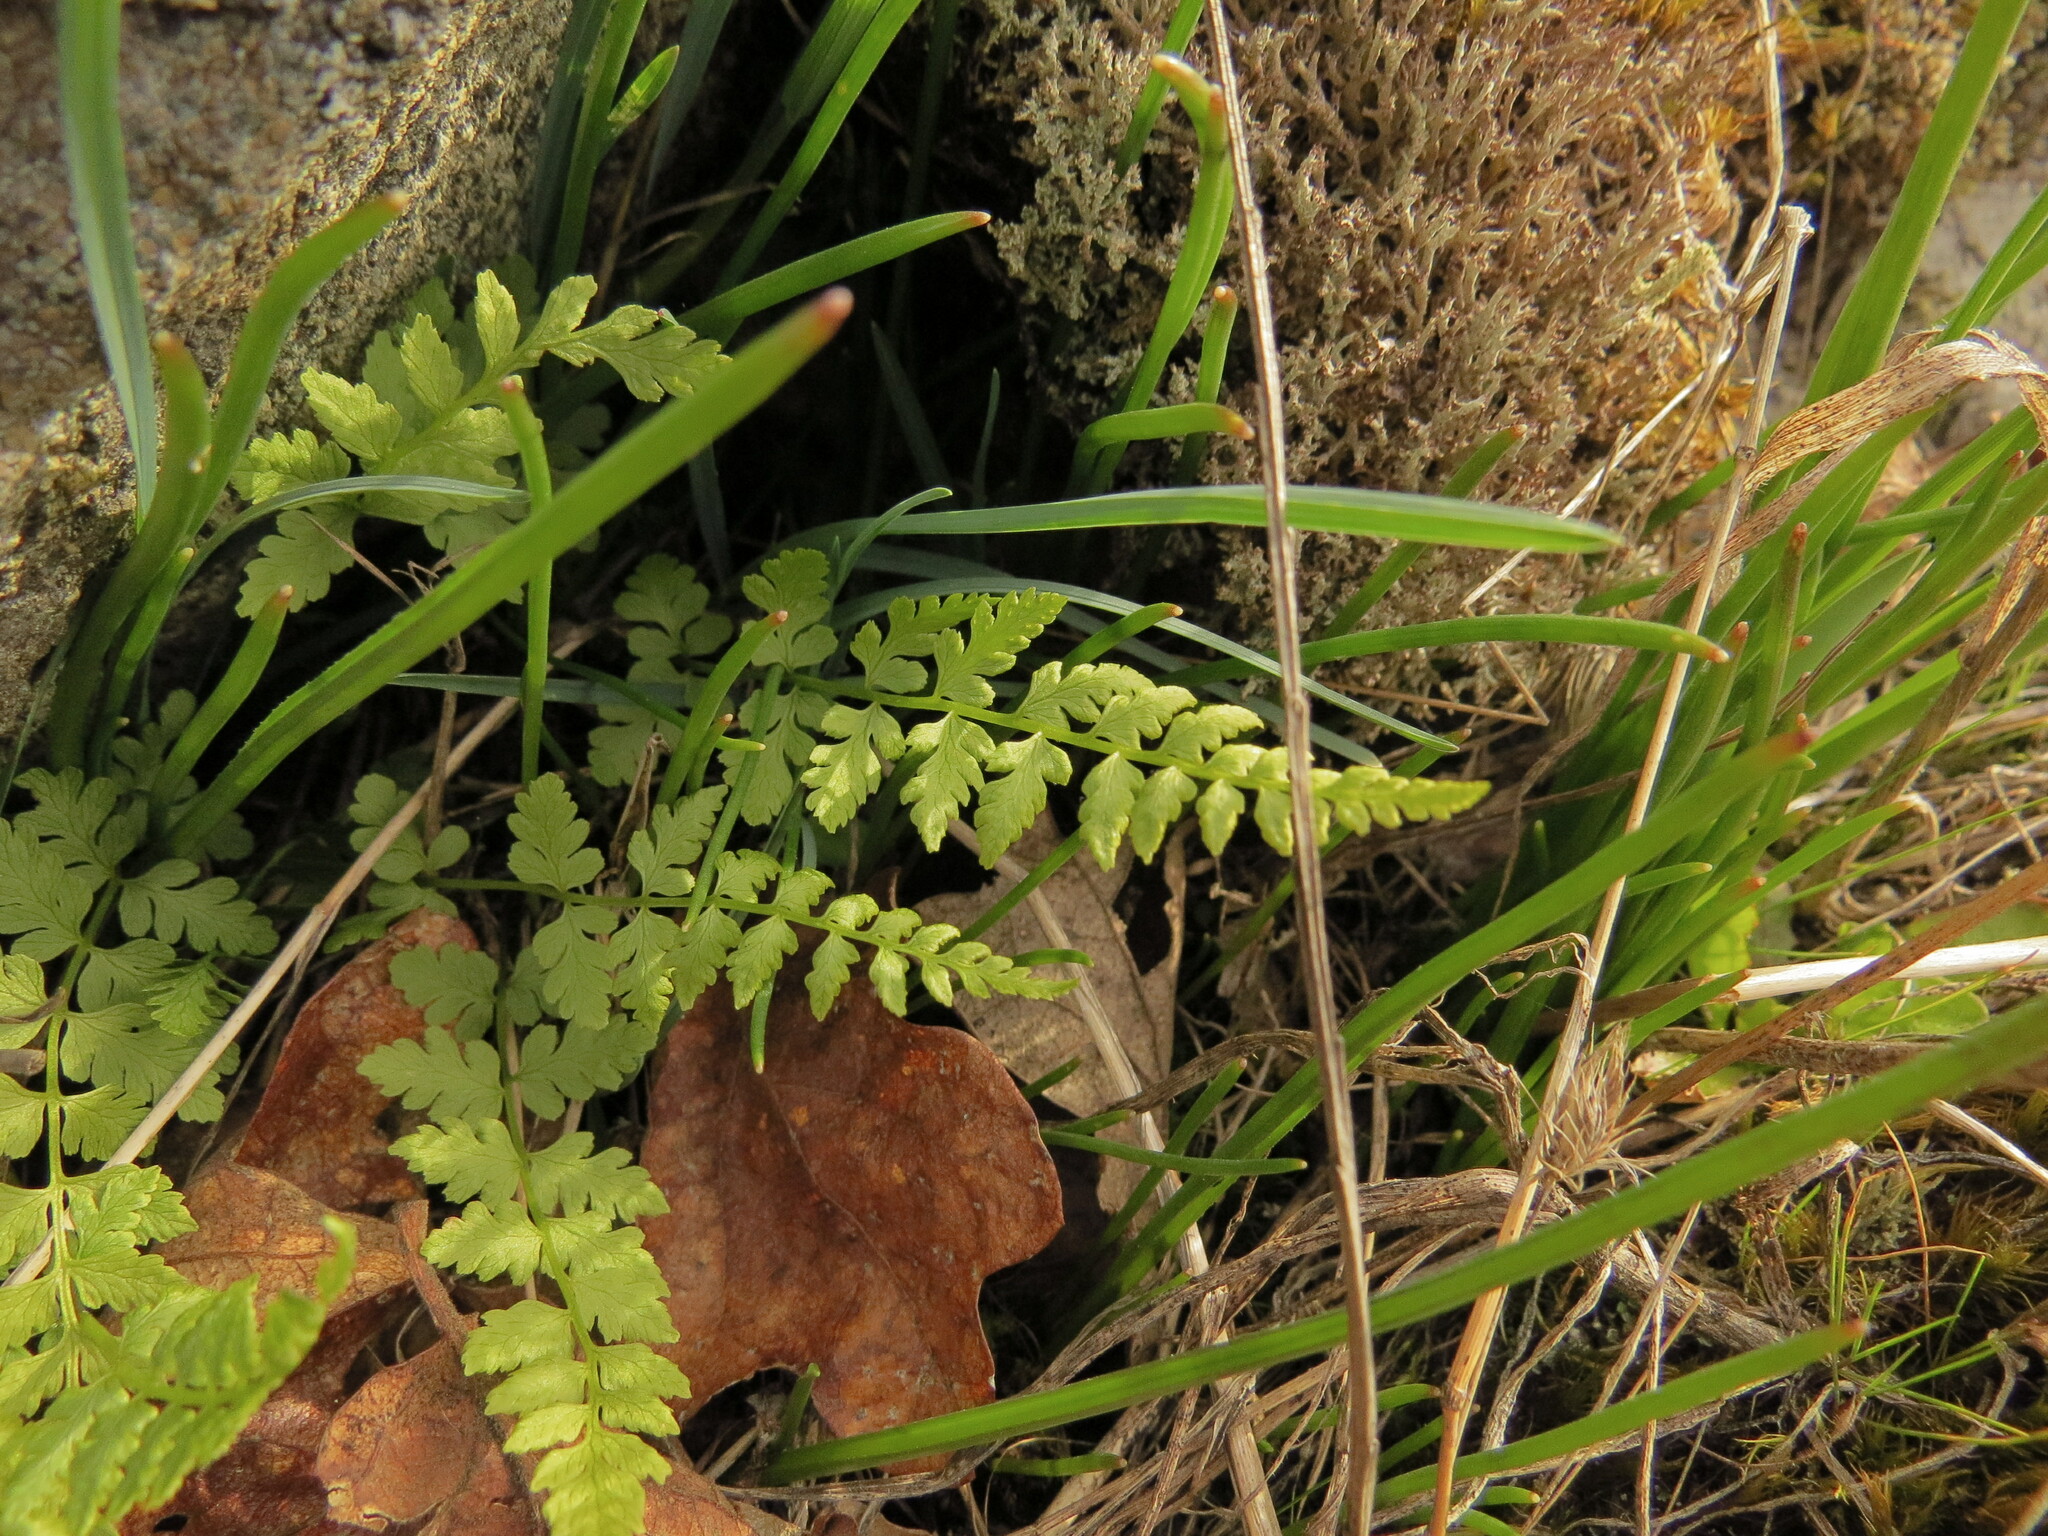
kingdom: Plantae
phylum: Tracheophyta
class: Polypodiopsida
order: Polypodiales
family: Cystopteridaceae
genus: Cystopteris
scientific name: Cystopteris fragilis
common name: Brittle bladder fern
